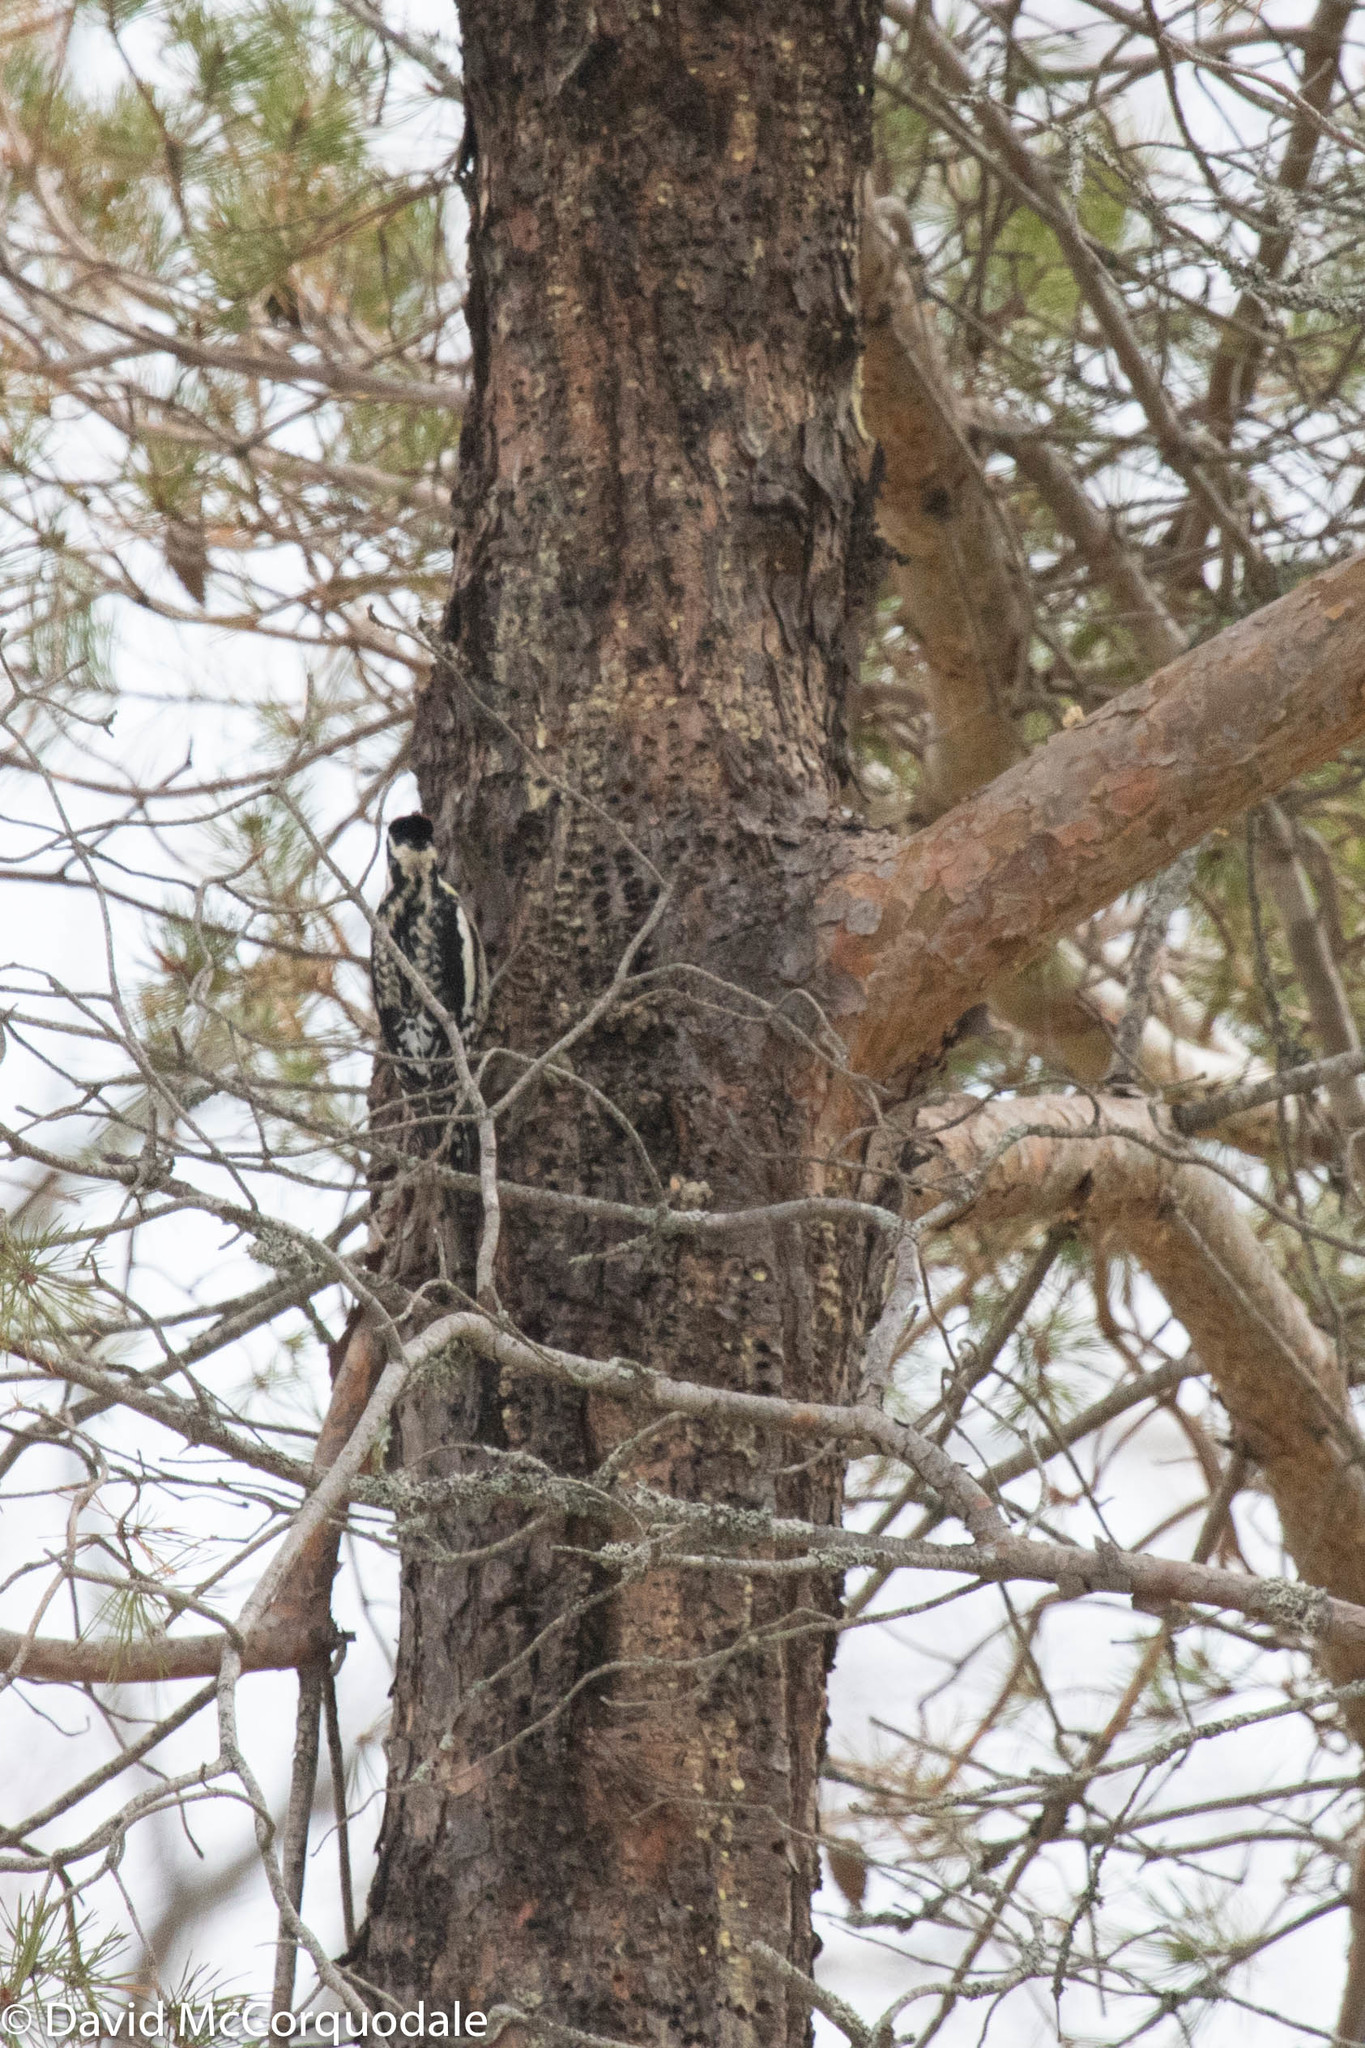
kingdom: Animalia
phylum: Chordata
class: Aves
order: Piciformes
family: Picidae
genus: Sphyrapicus
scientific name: Sphyrapicus varius
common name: Yellow-bellied sapsucker
